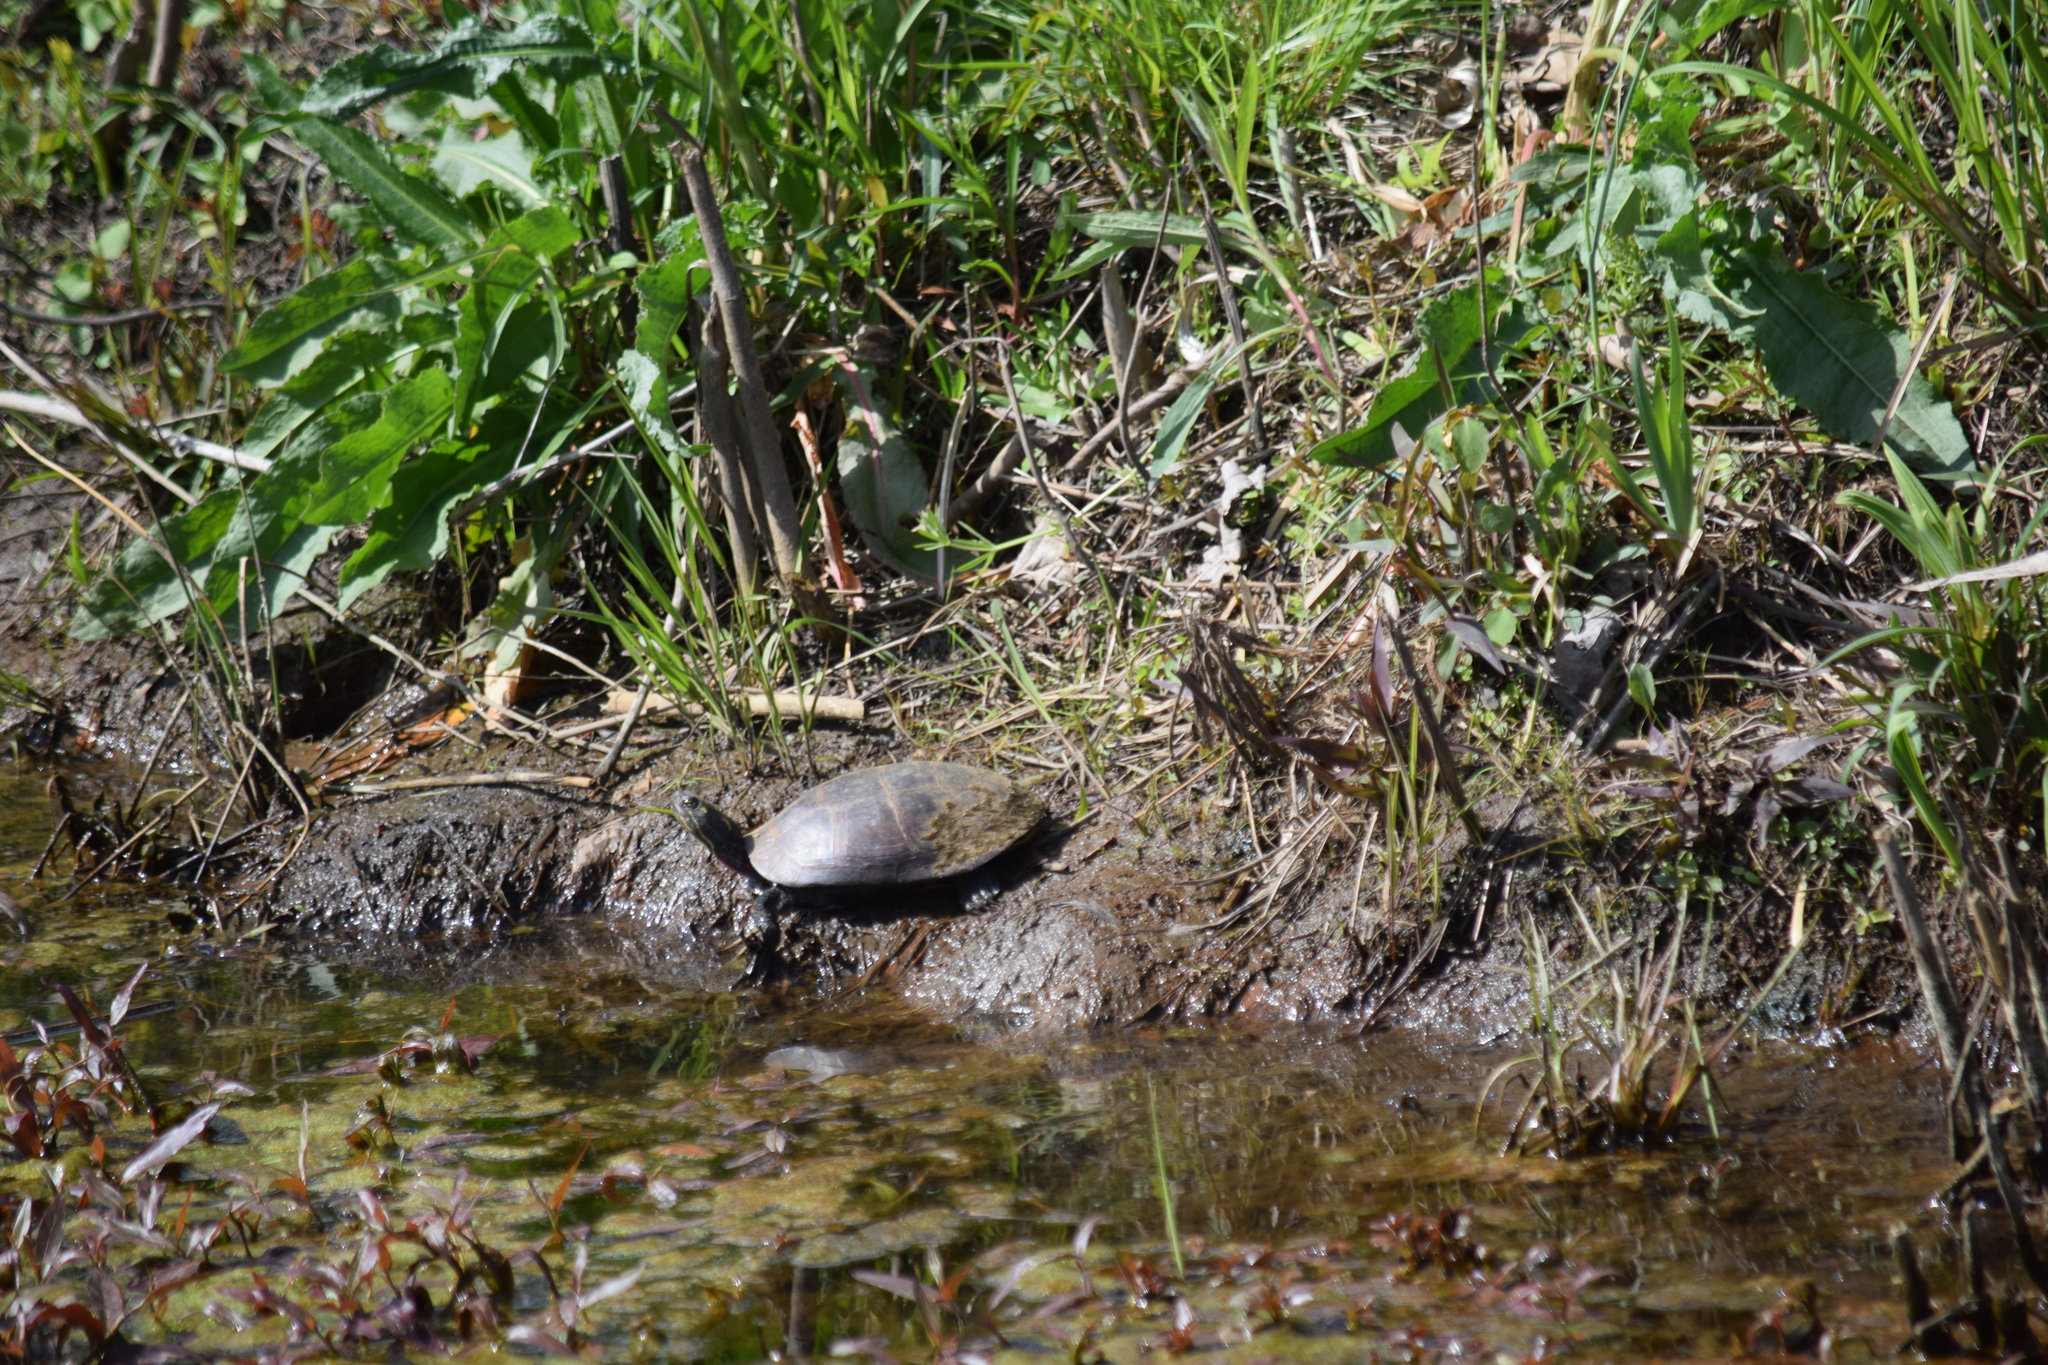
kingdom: Animalia
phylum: Chordata
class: Testudines
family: Emydidae
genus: Chrysemys
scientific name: Chrysemys picta
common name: Painted turtle
